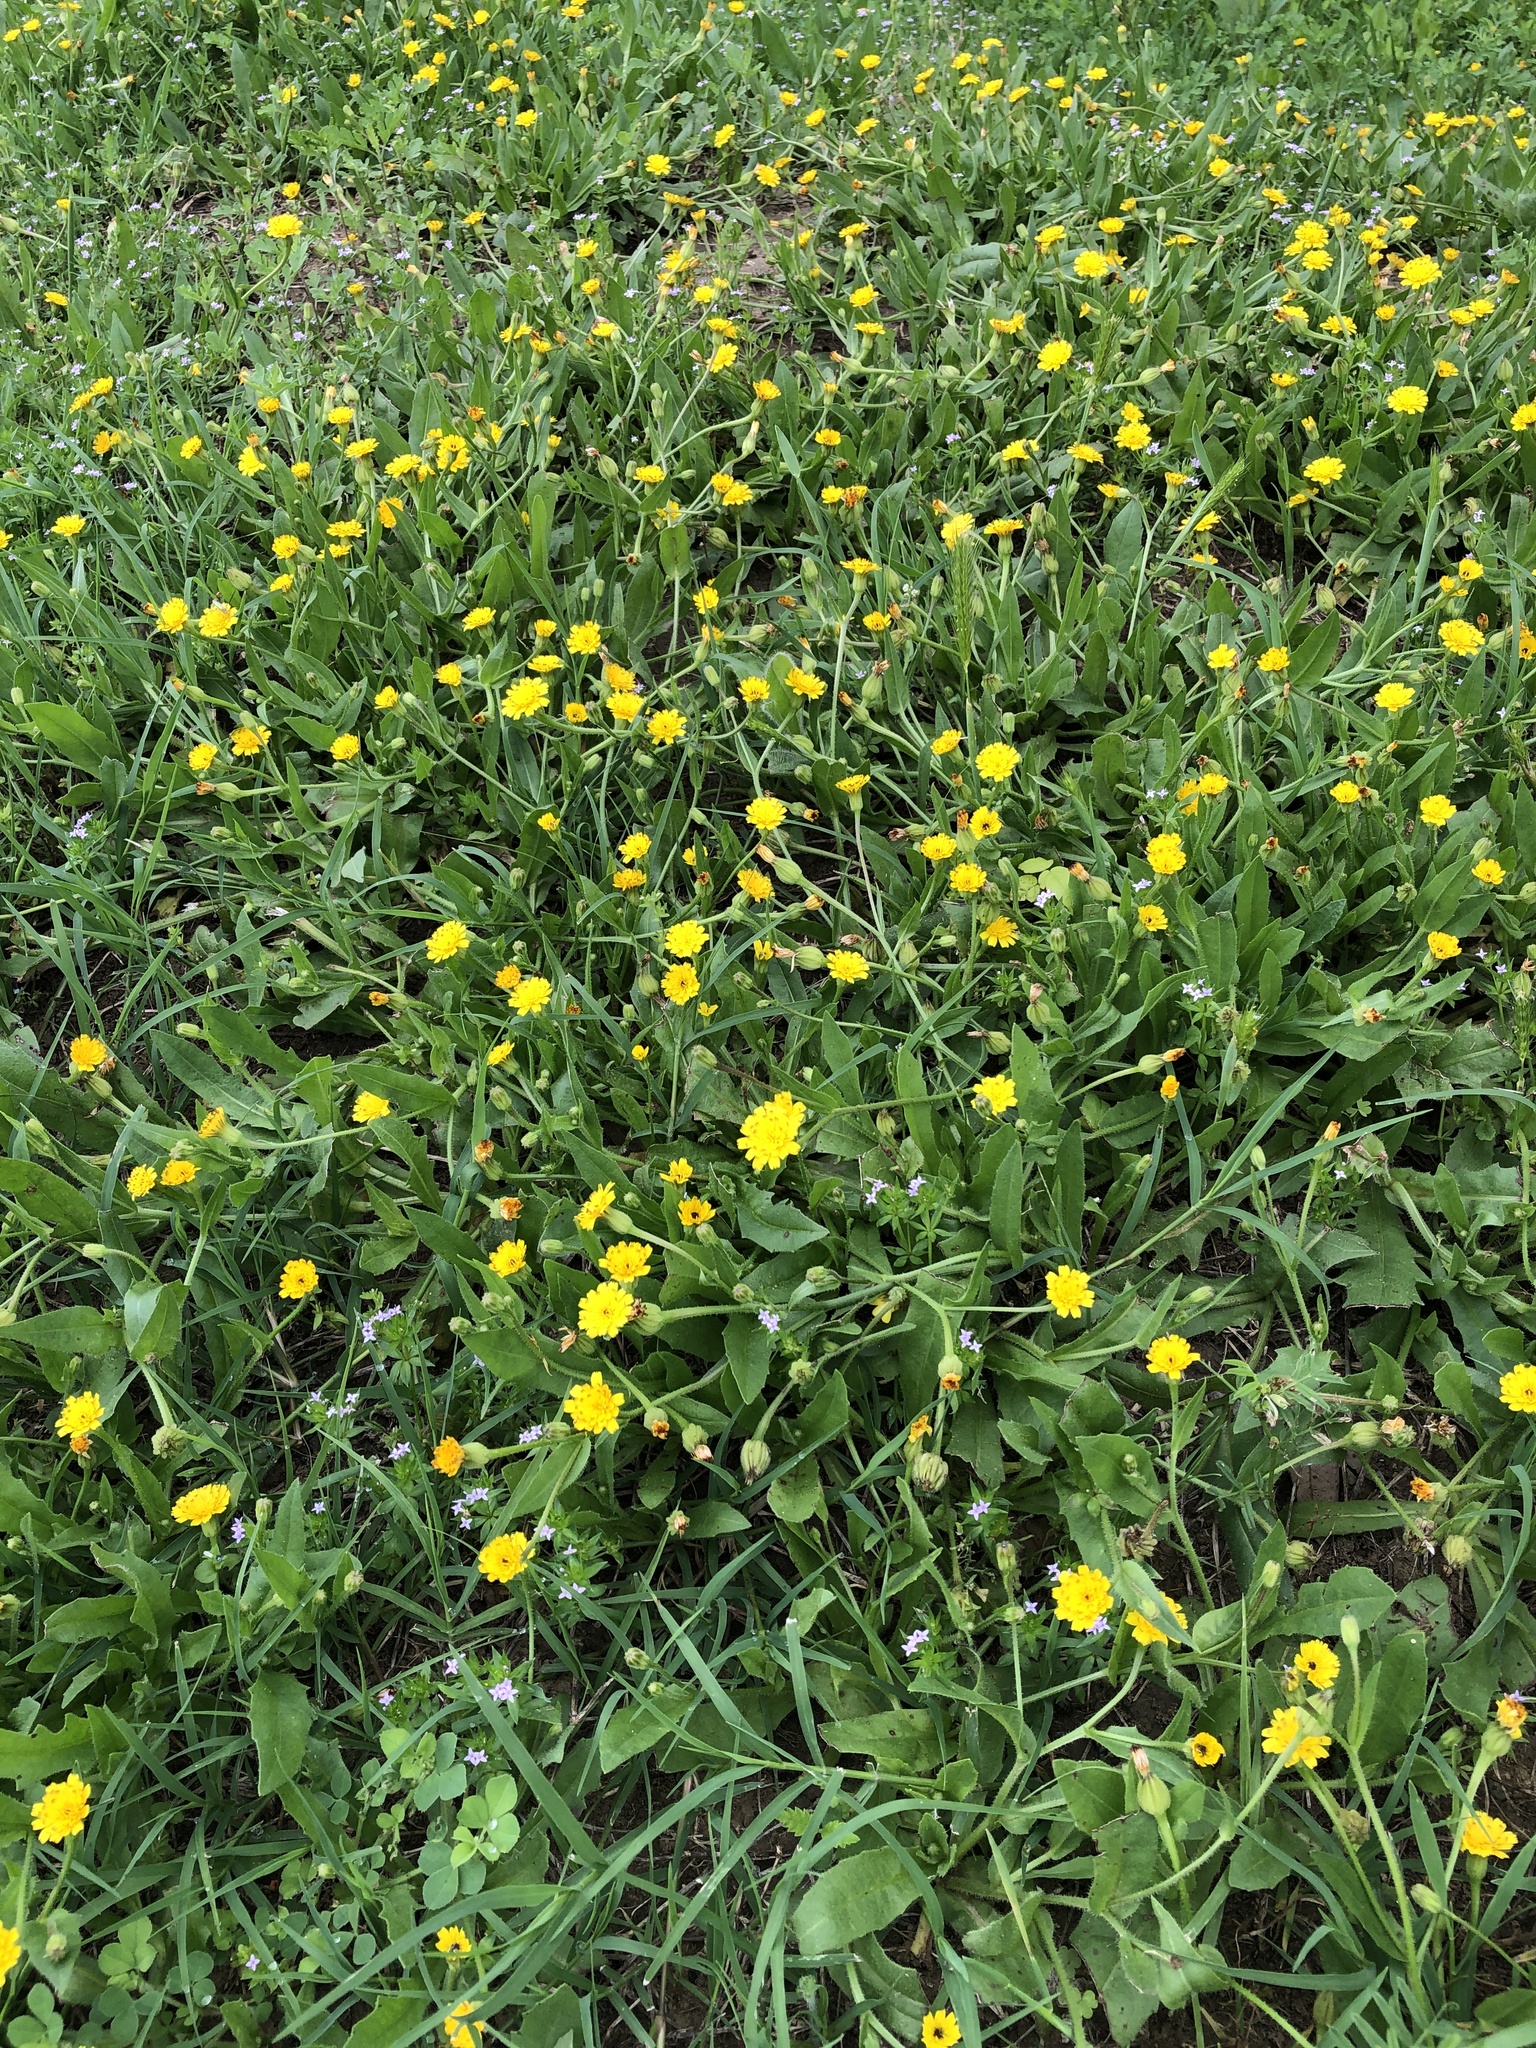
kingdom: Plantae
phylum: Tracheophyta
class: Magnoliopsida
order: Asterales
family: Asteraceae
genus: Hedypnois
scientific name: Hedypnois rhagadioloides
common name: Cretan weed
